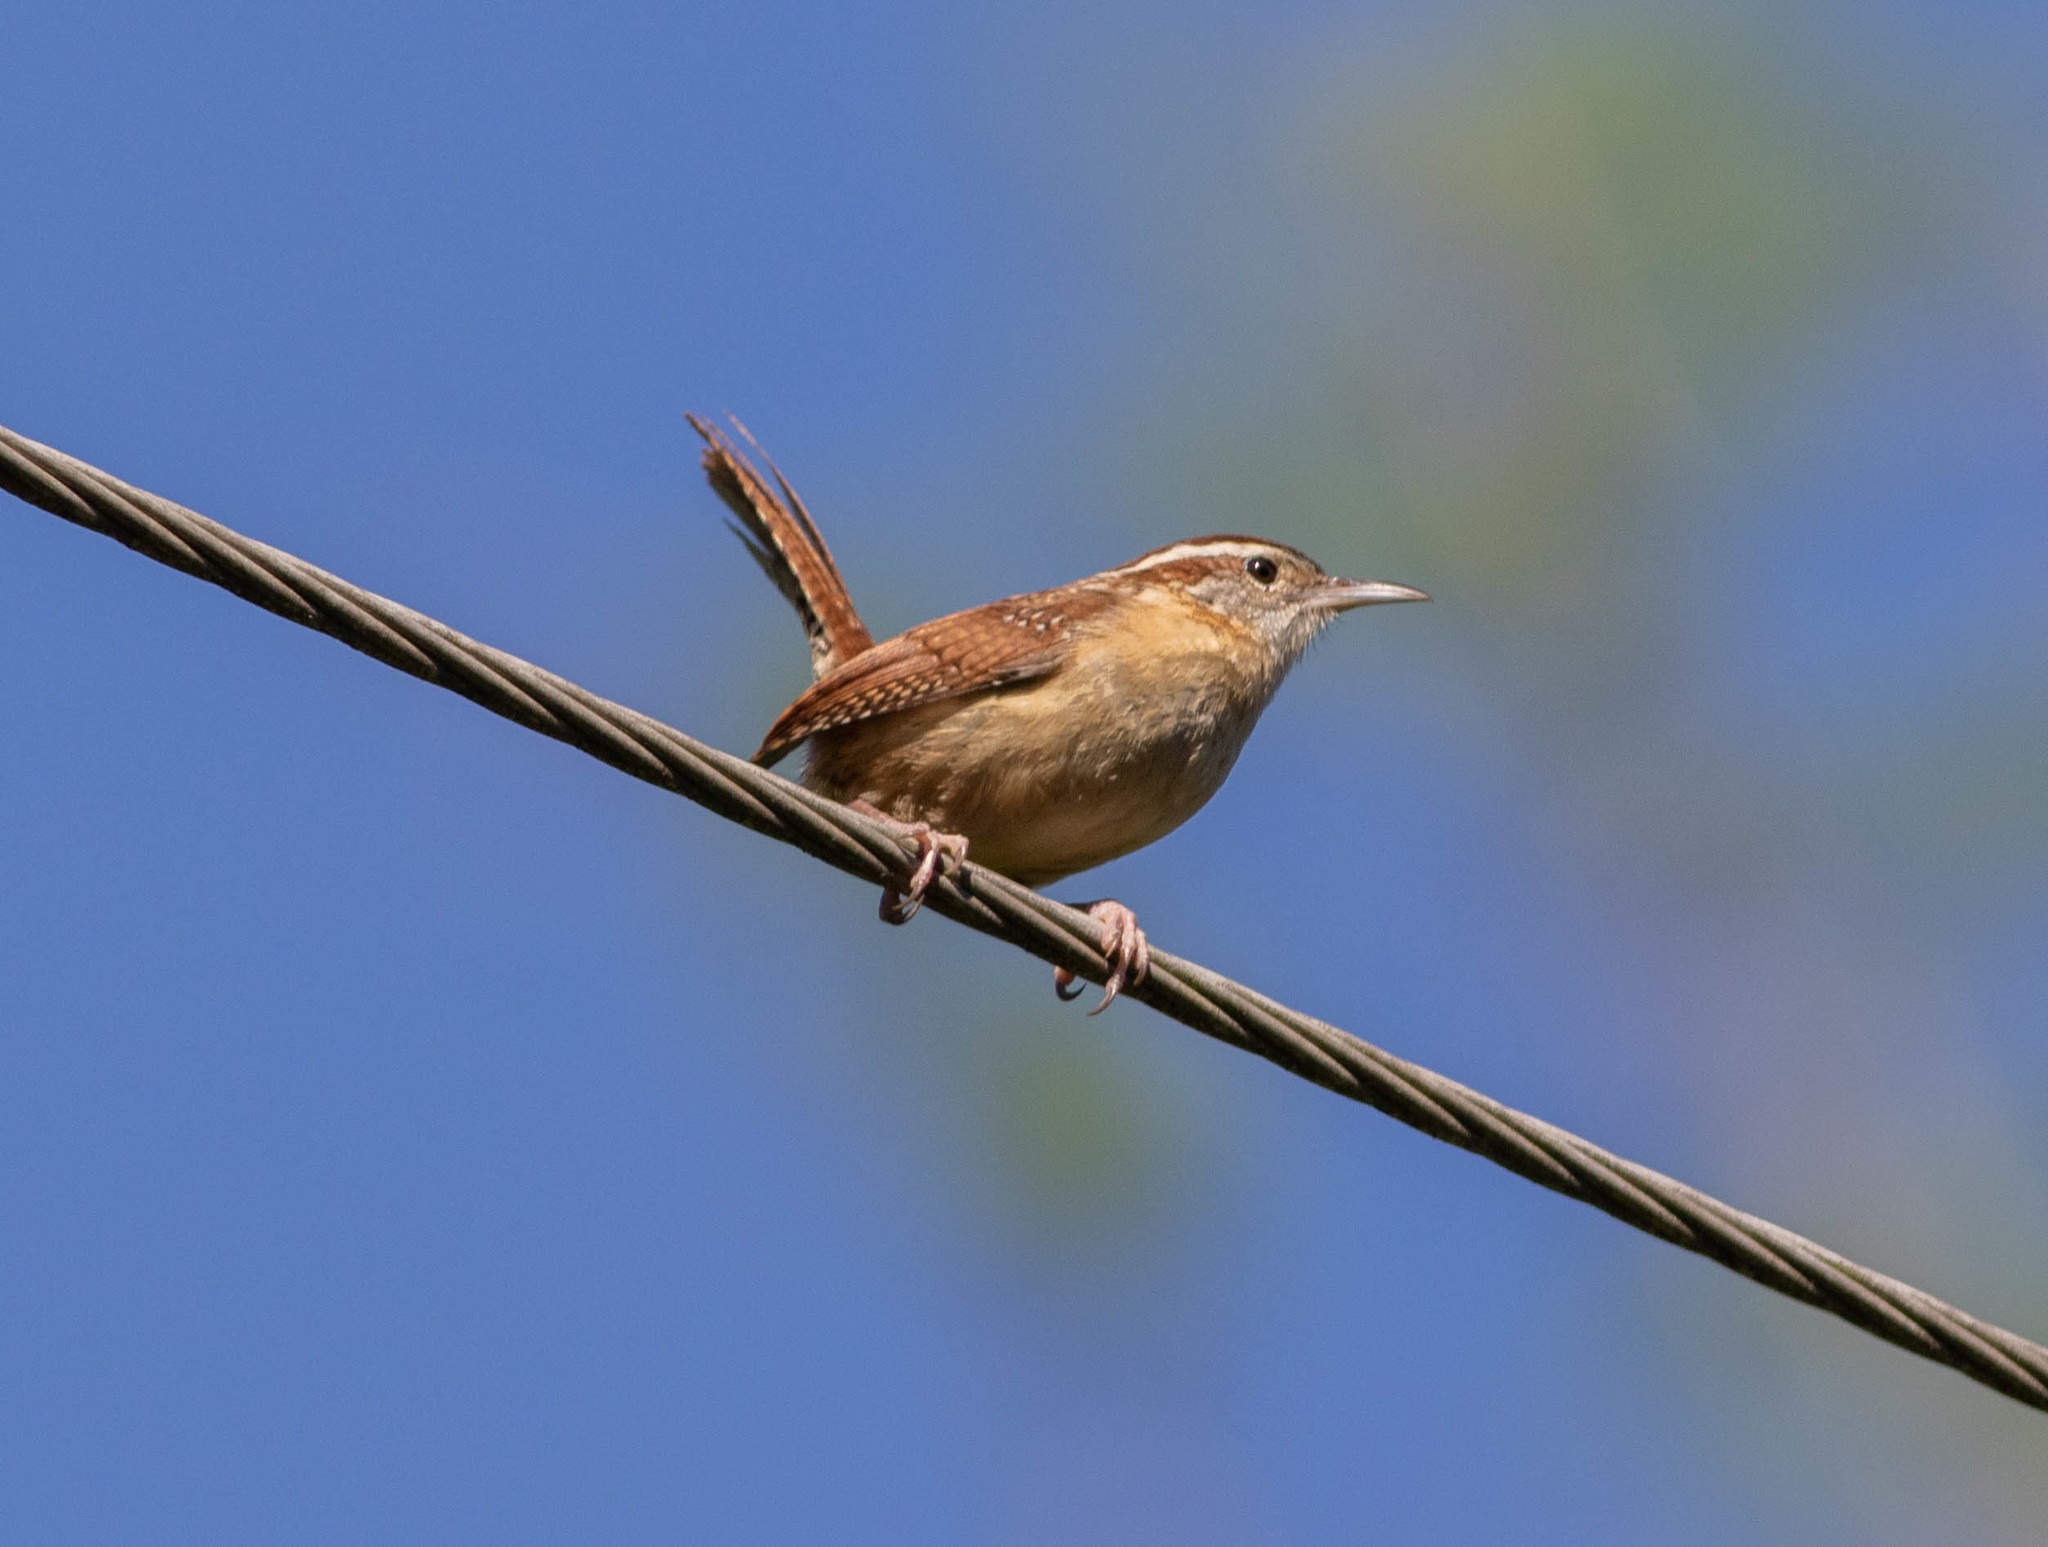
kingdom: Animalia
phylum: Chordata
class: Aves
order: Passeriformes
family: Troglodytidae
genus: Thryothorus
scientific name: Thryothorus ludovicianus
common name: Carolina wren
